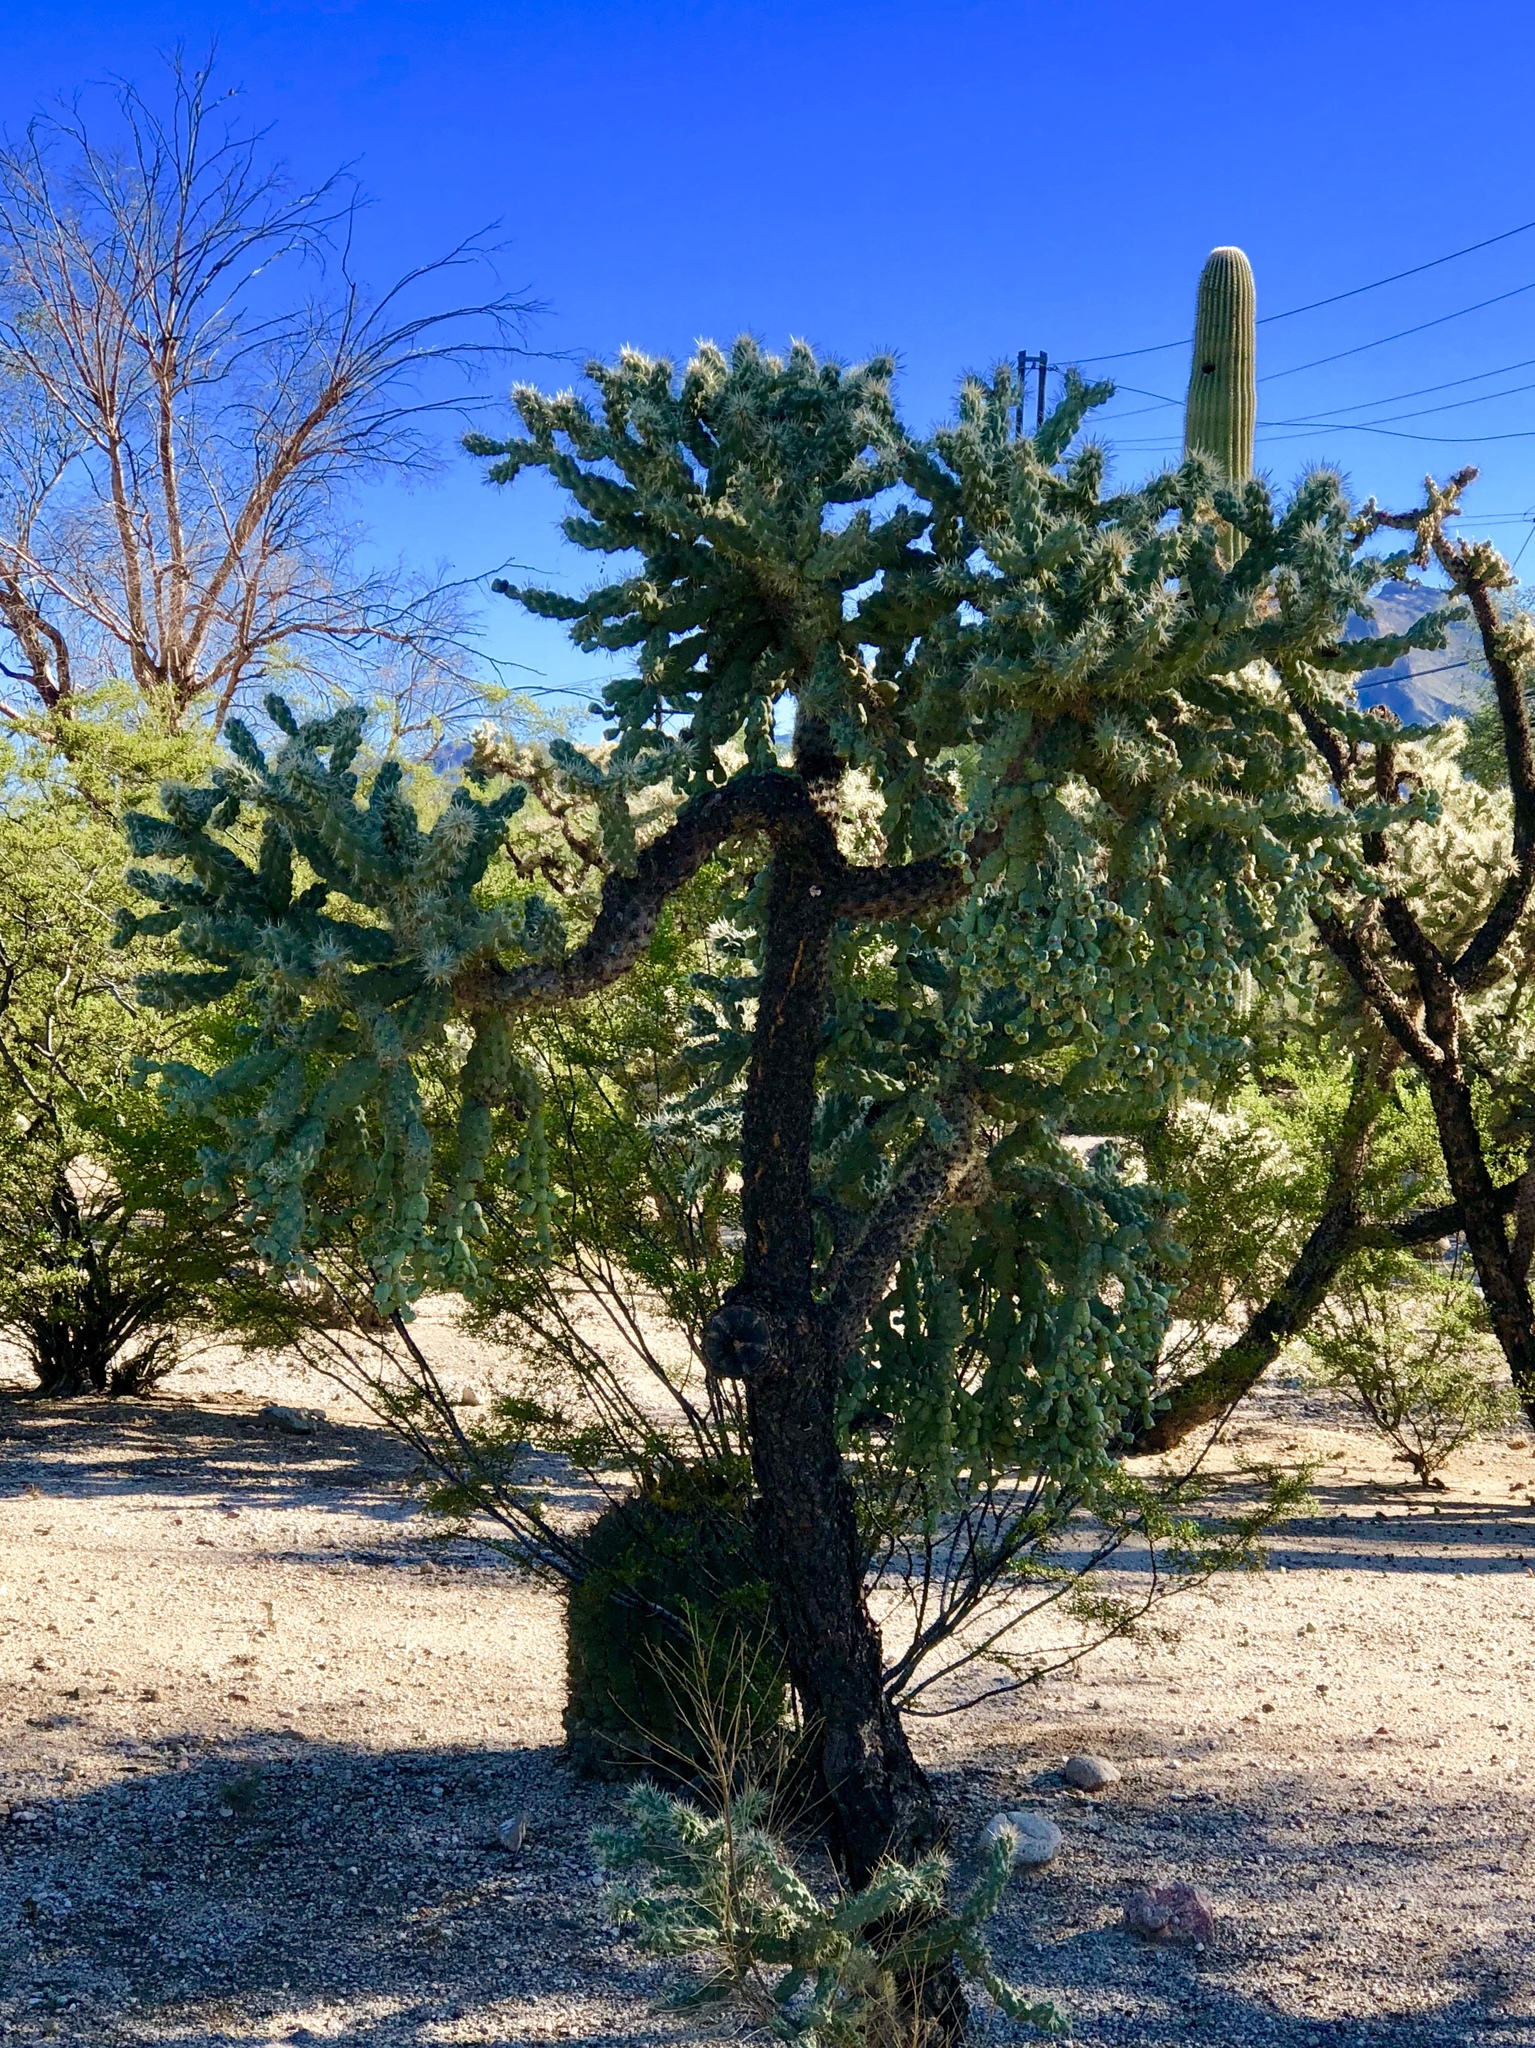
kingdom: Plantae
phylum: Tracheophyta
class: Magnoliopsida
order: Caryophyllales
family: Cactaceae
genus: Cylindropuntia
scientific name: Cylindropuntia fulgida
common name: Jumping cholla
